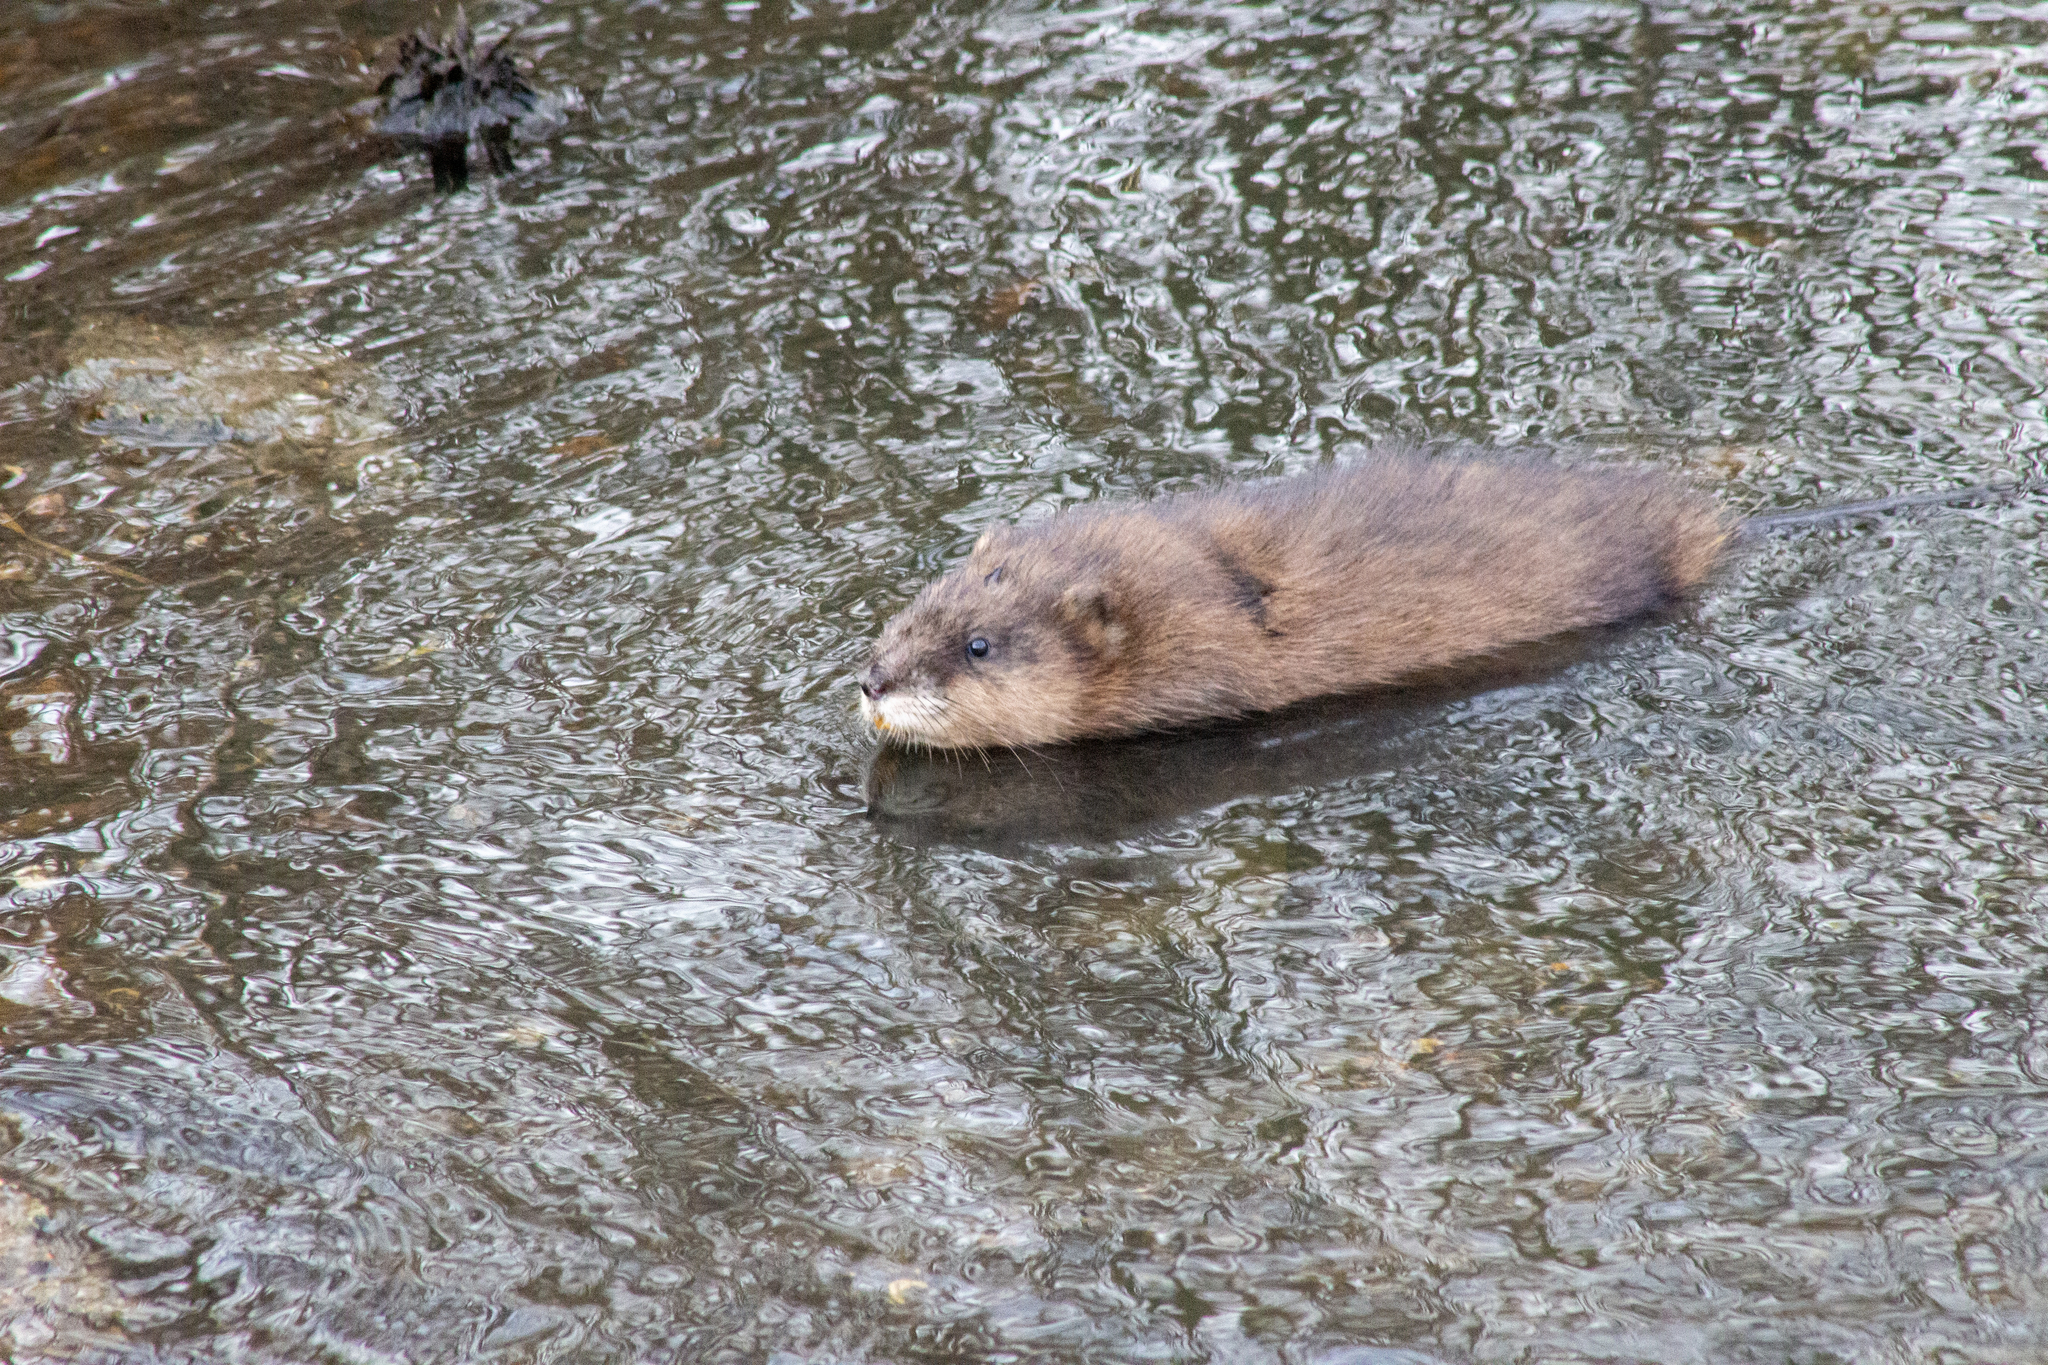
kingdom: Animalia
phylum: Chordata
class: Mammalia
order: Rodentia
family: Cricetidae
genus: Ondatra
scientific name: Ondatra zibethicus
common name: Muskrat
